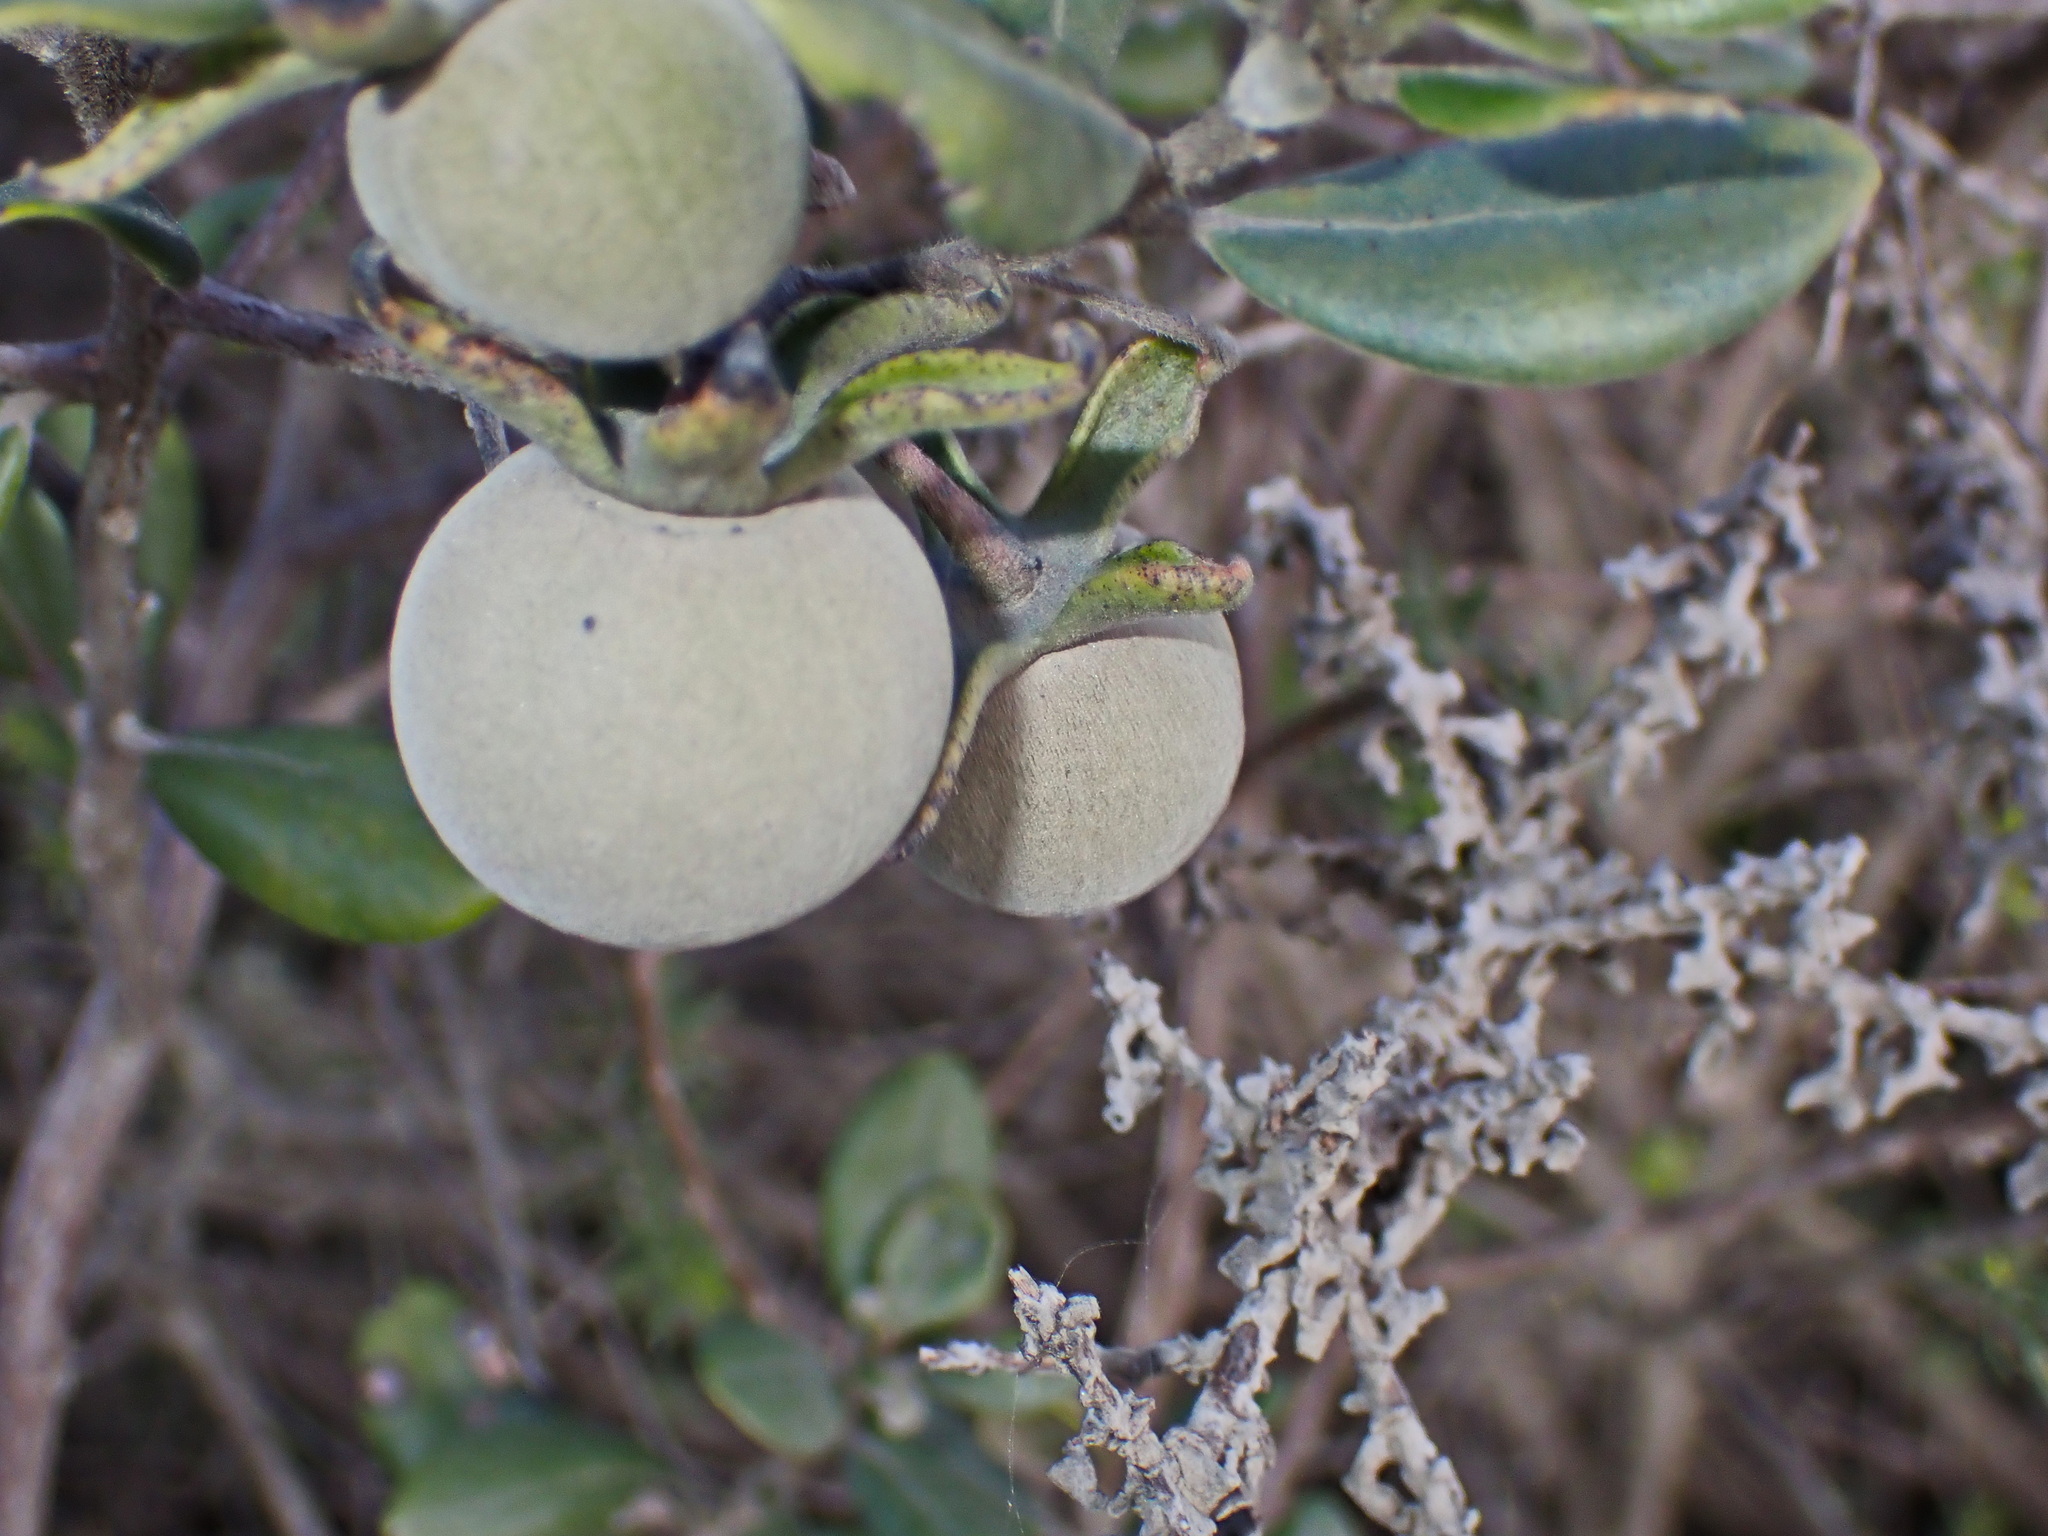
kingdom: Plantae
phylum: Tracheophyta
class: Magnoliopsida
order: Ericales
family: Ebenaceae
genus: Diospyros
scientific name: Diospyros dichrophylla
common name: Common star-apple
